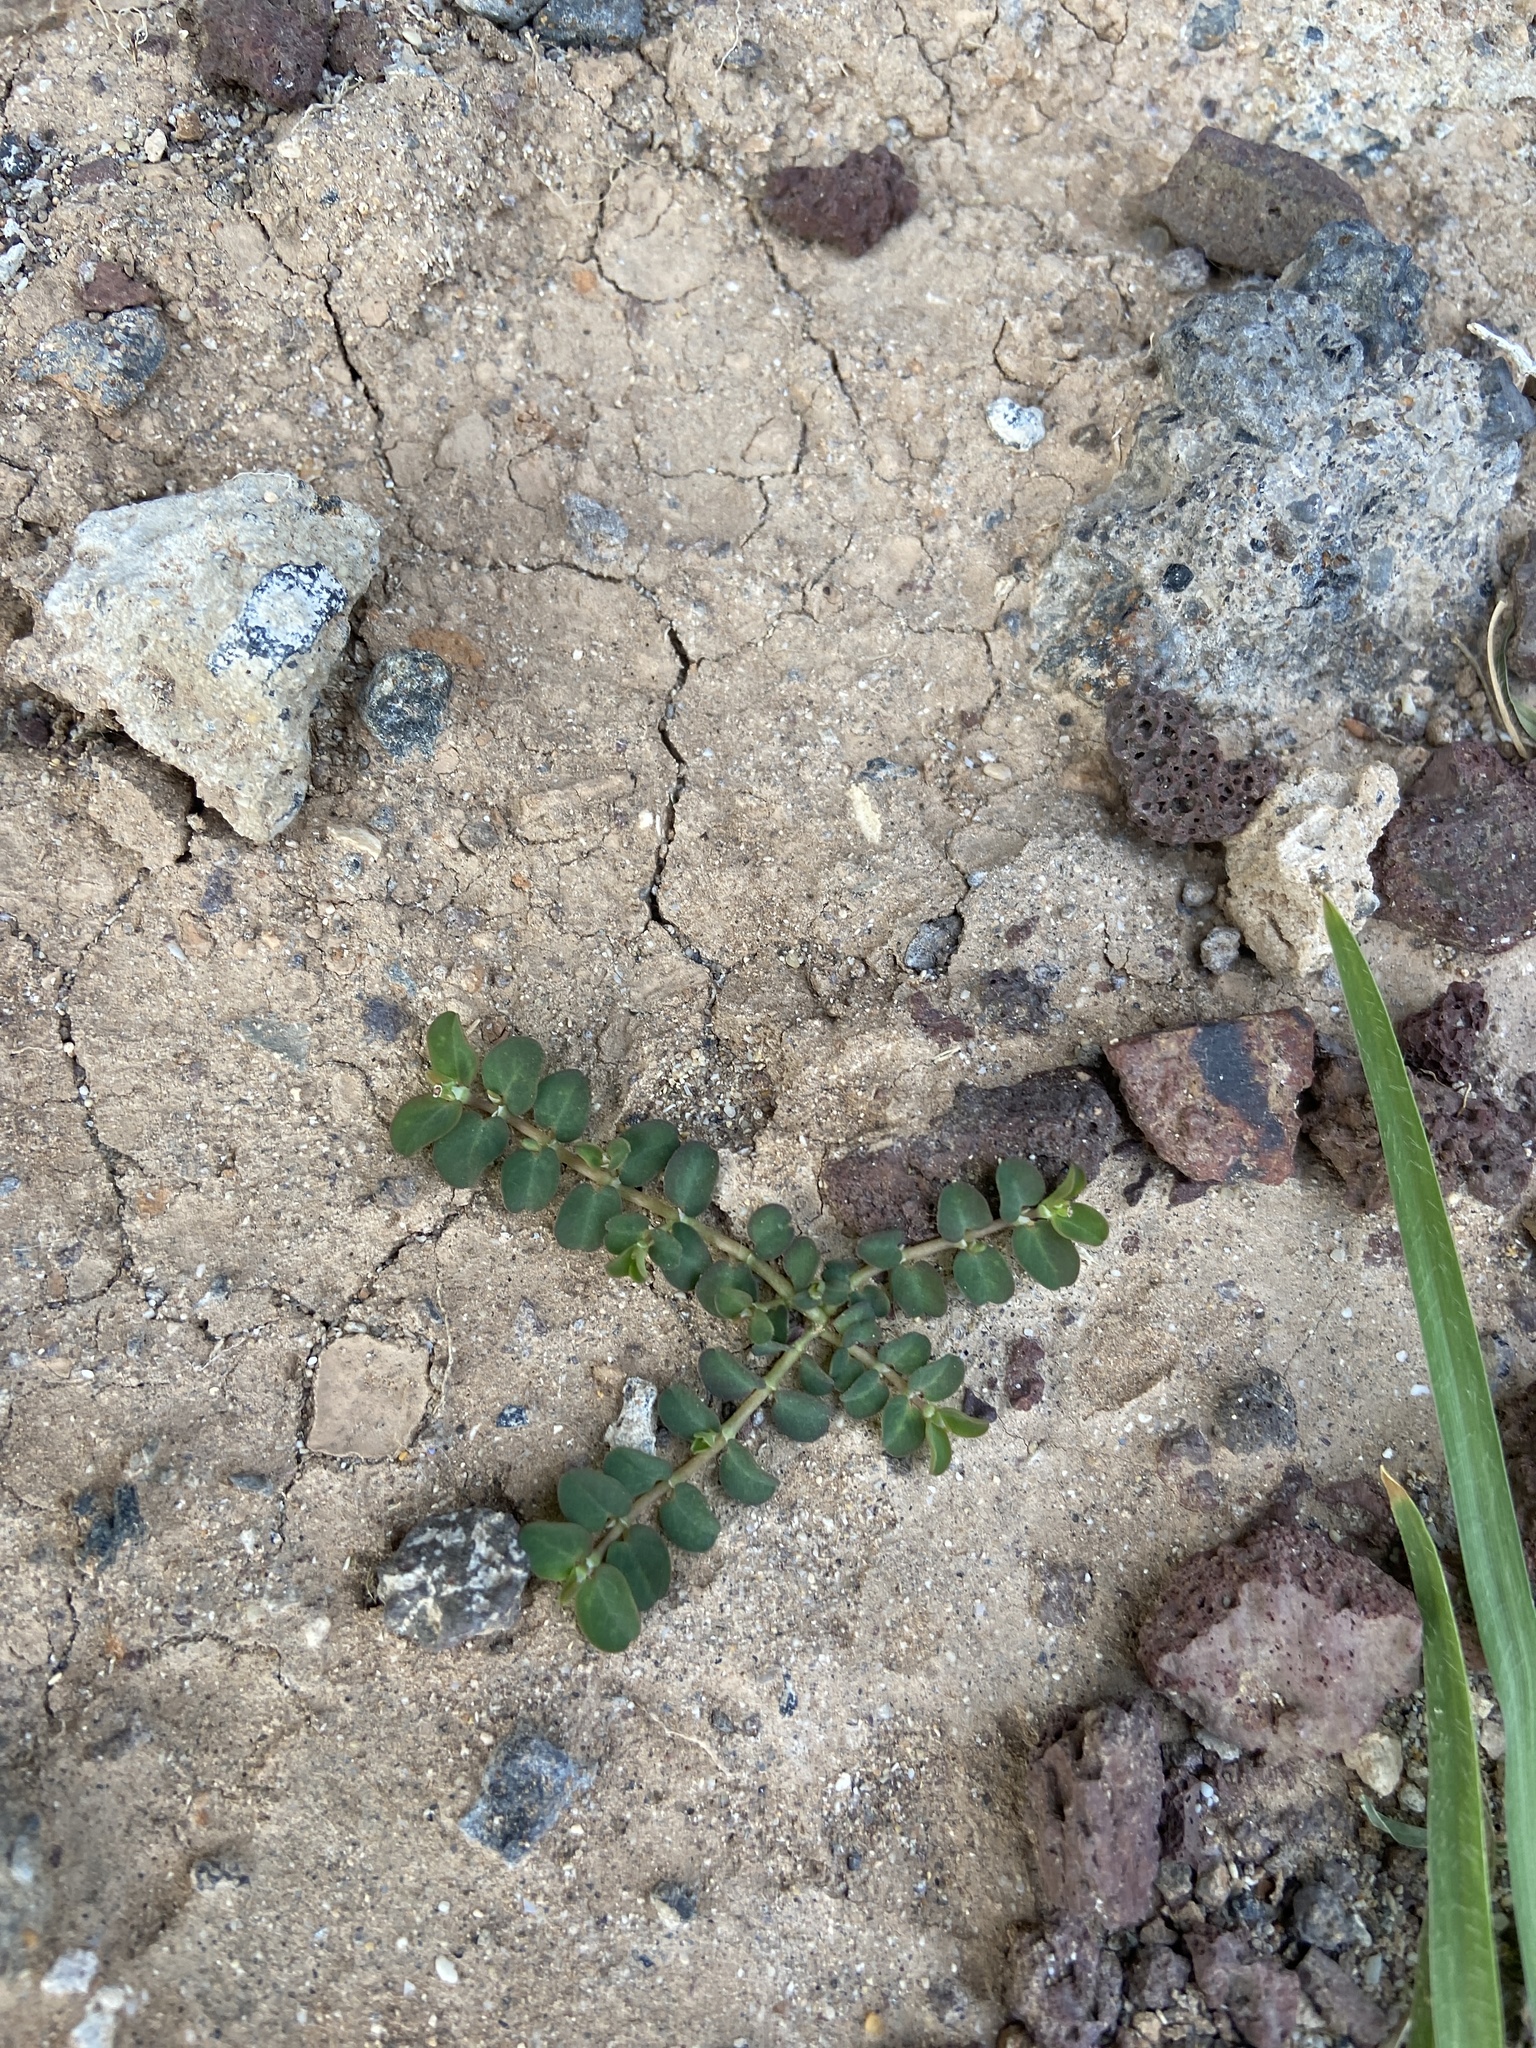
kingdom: Plantae
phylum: Tracheophyta
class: Magnoliopsida
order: Malpighiales
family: Euphorbiaceae
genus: Euphorbia
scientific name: Euphorbia serpens
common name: Matted sandmat
